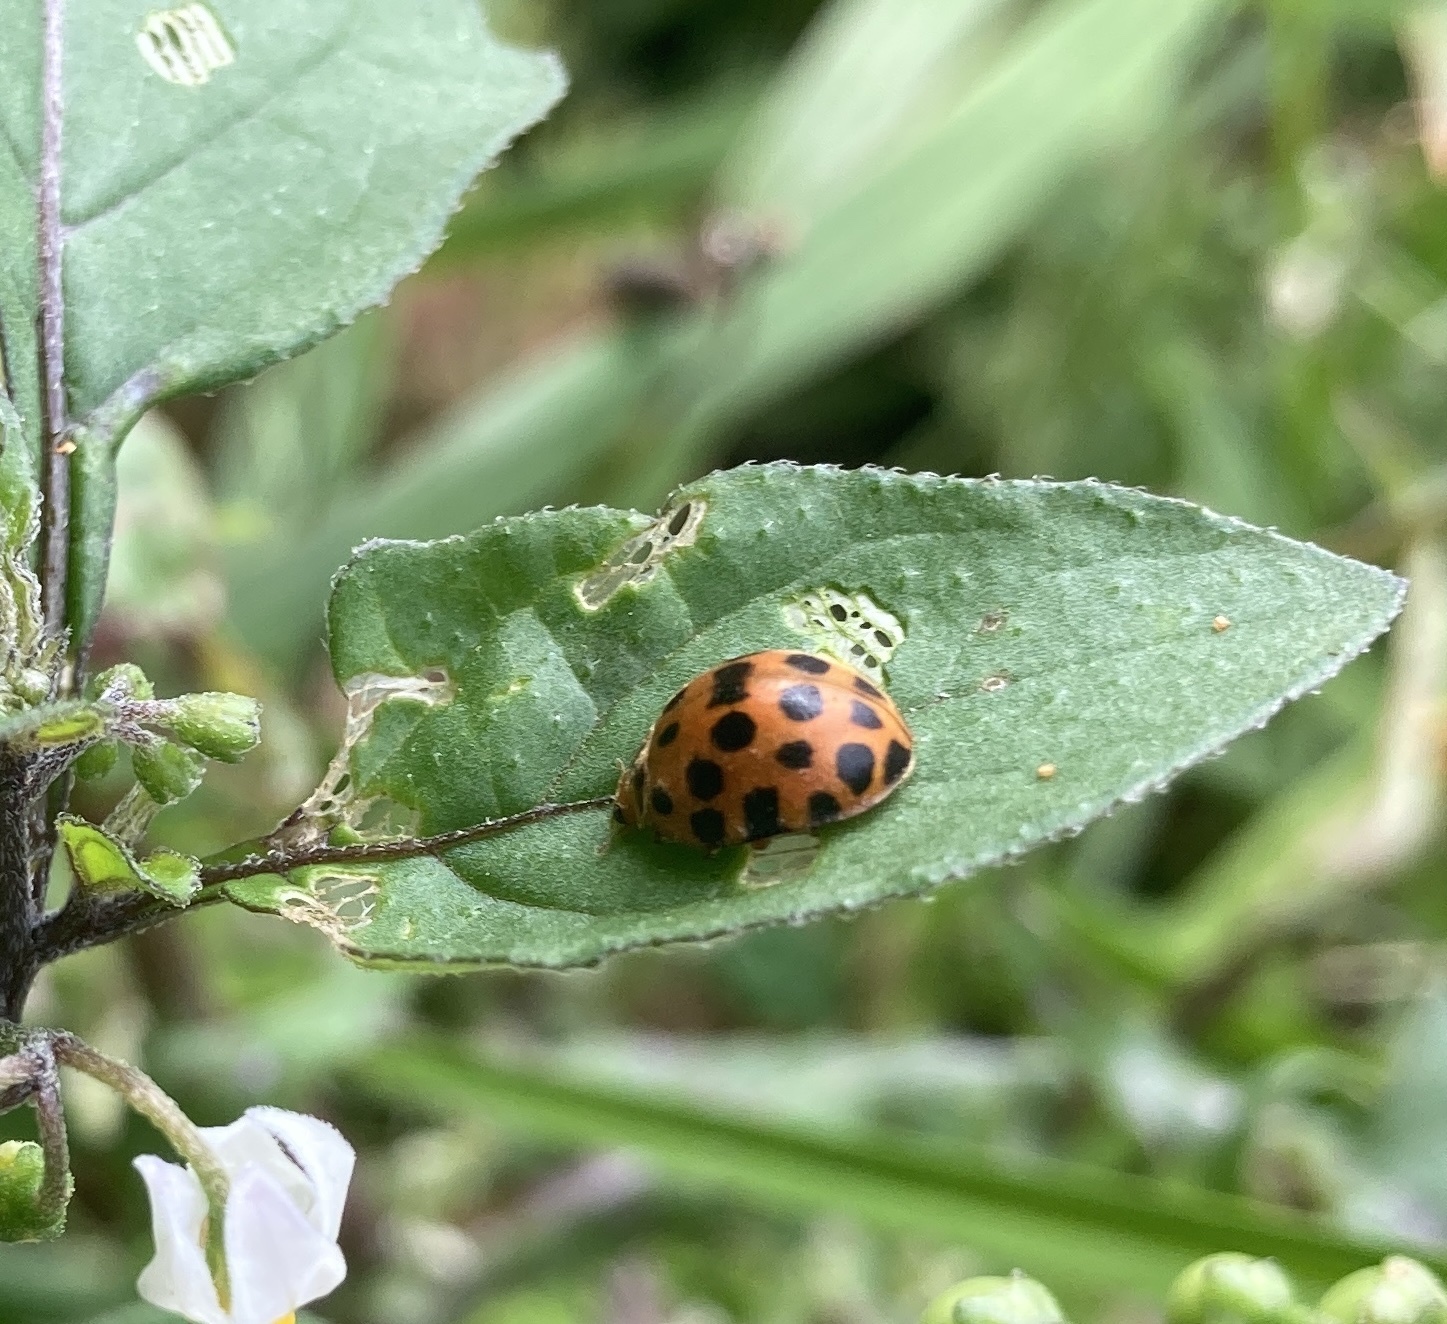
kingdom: Animalia
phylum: Arthropoda
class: Insecta
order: Coleoptera
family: Coccinellidae
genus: Henosepilachna
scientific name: Henosepilachna vigintioctopunctata
